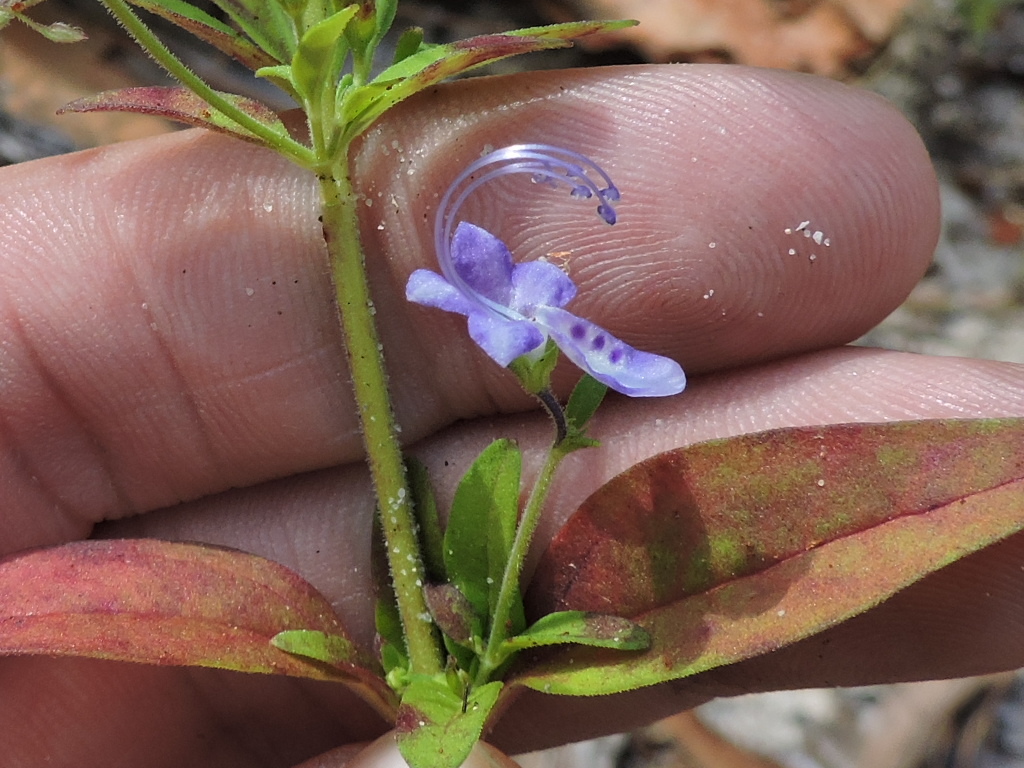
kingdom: Plantae
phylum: Tracheophyta
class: Magnoliopsida
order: Lamiales
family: Lamiaceae
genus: Trichostema
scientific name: Trichostema dichotomum
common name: Bastard pennyroyal
